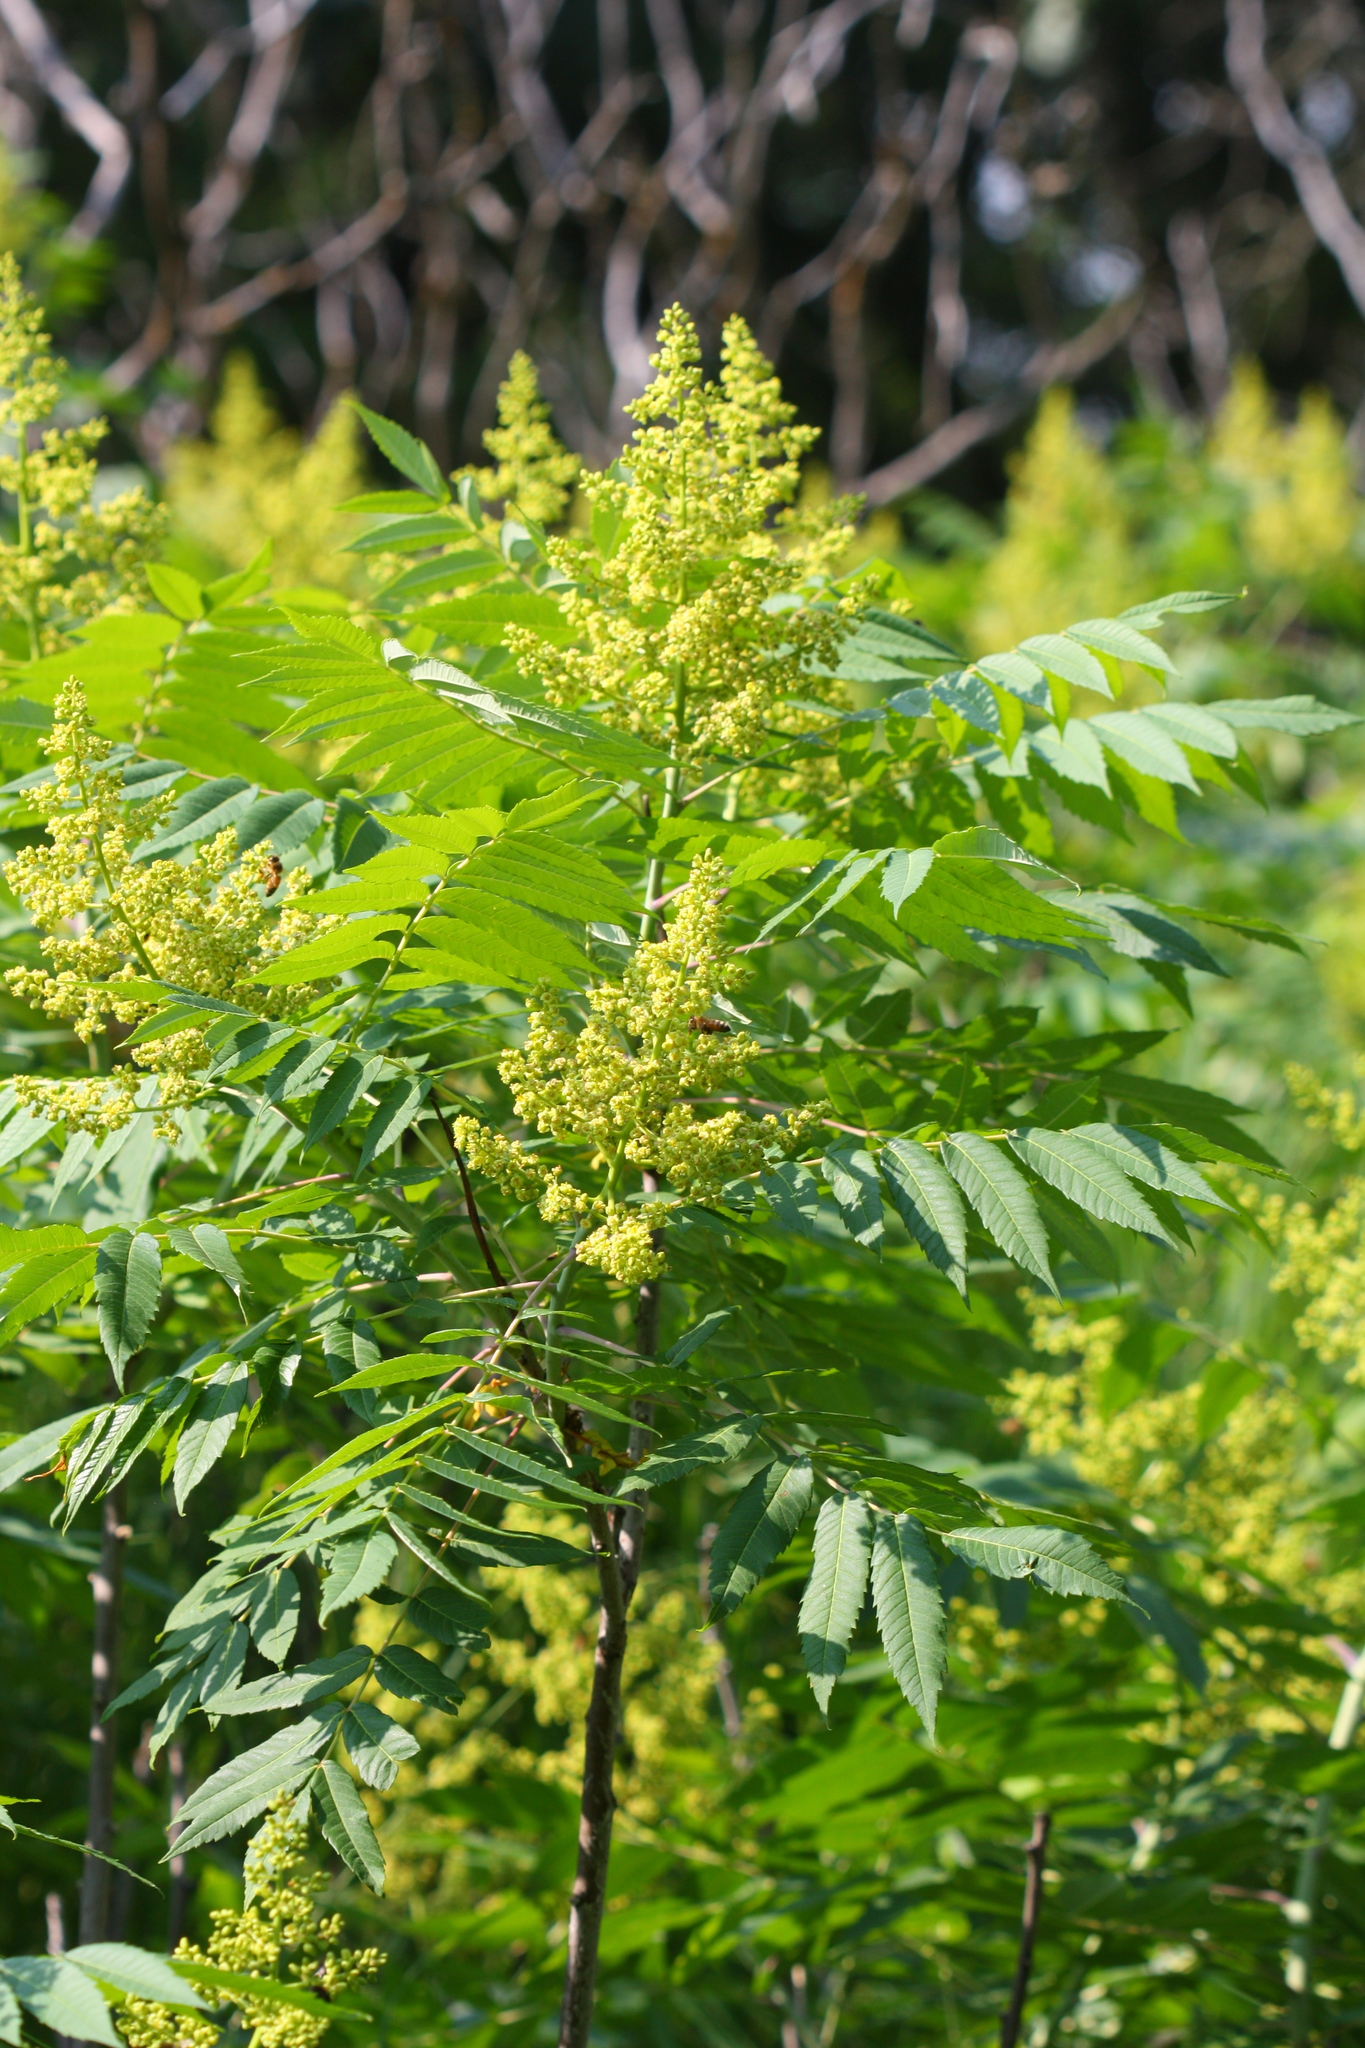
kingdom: Plantae
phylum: Tracheophyta
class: Magnoliopsida
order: Sapindales
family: Anacardiaceae
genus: Rhus
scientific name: Rhus glabra
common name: Scarlet sumac
